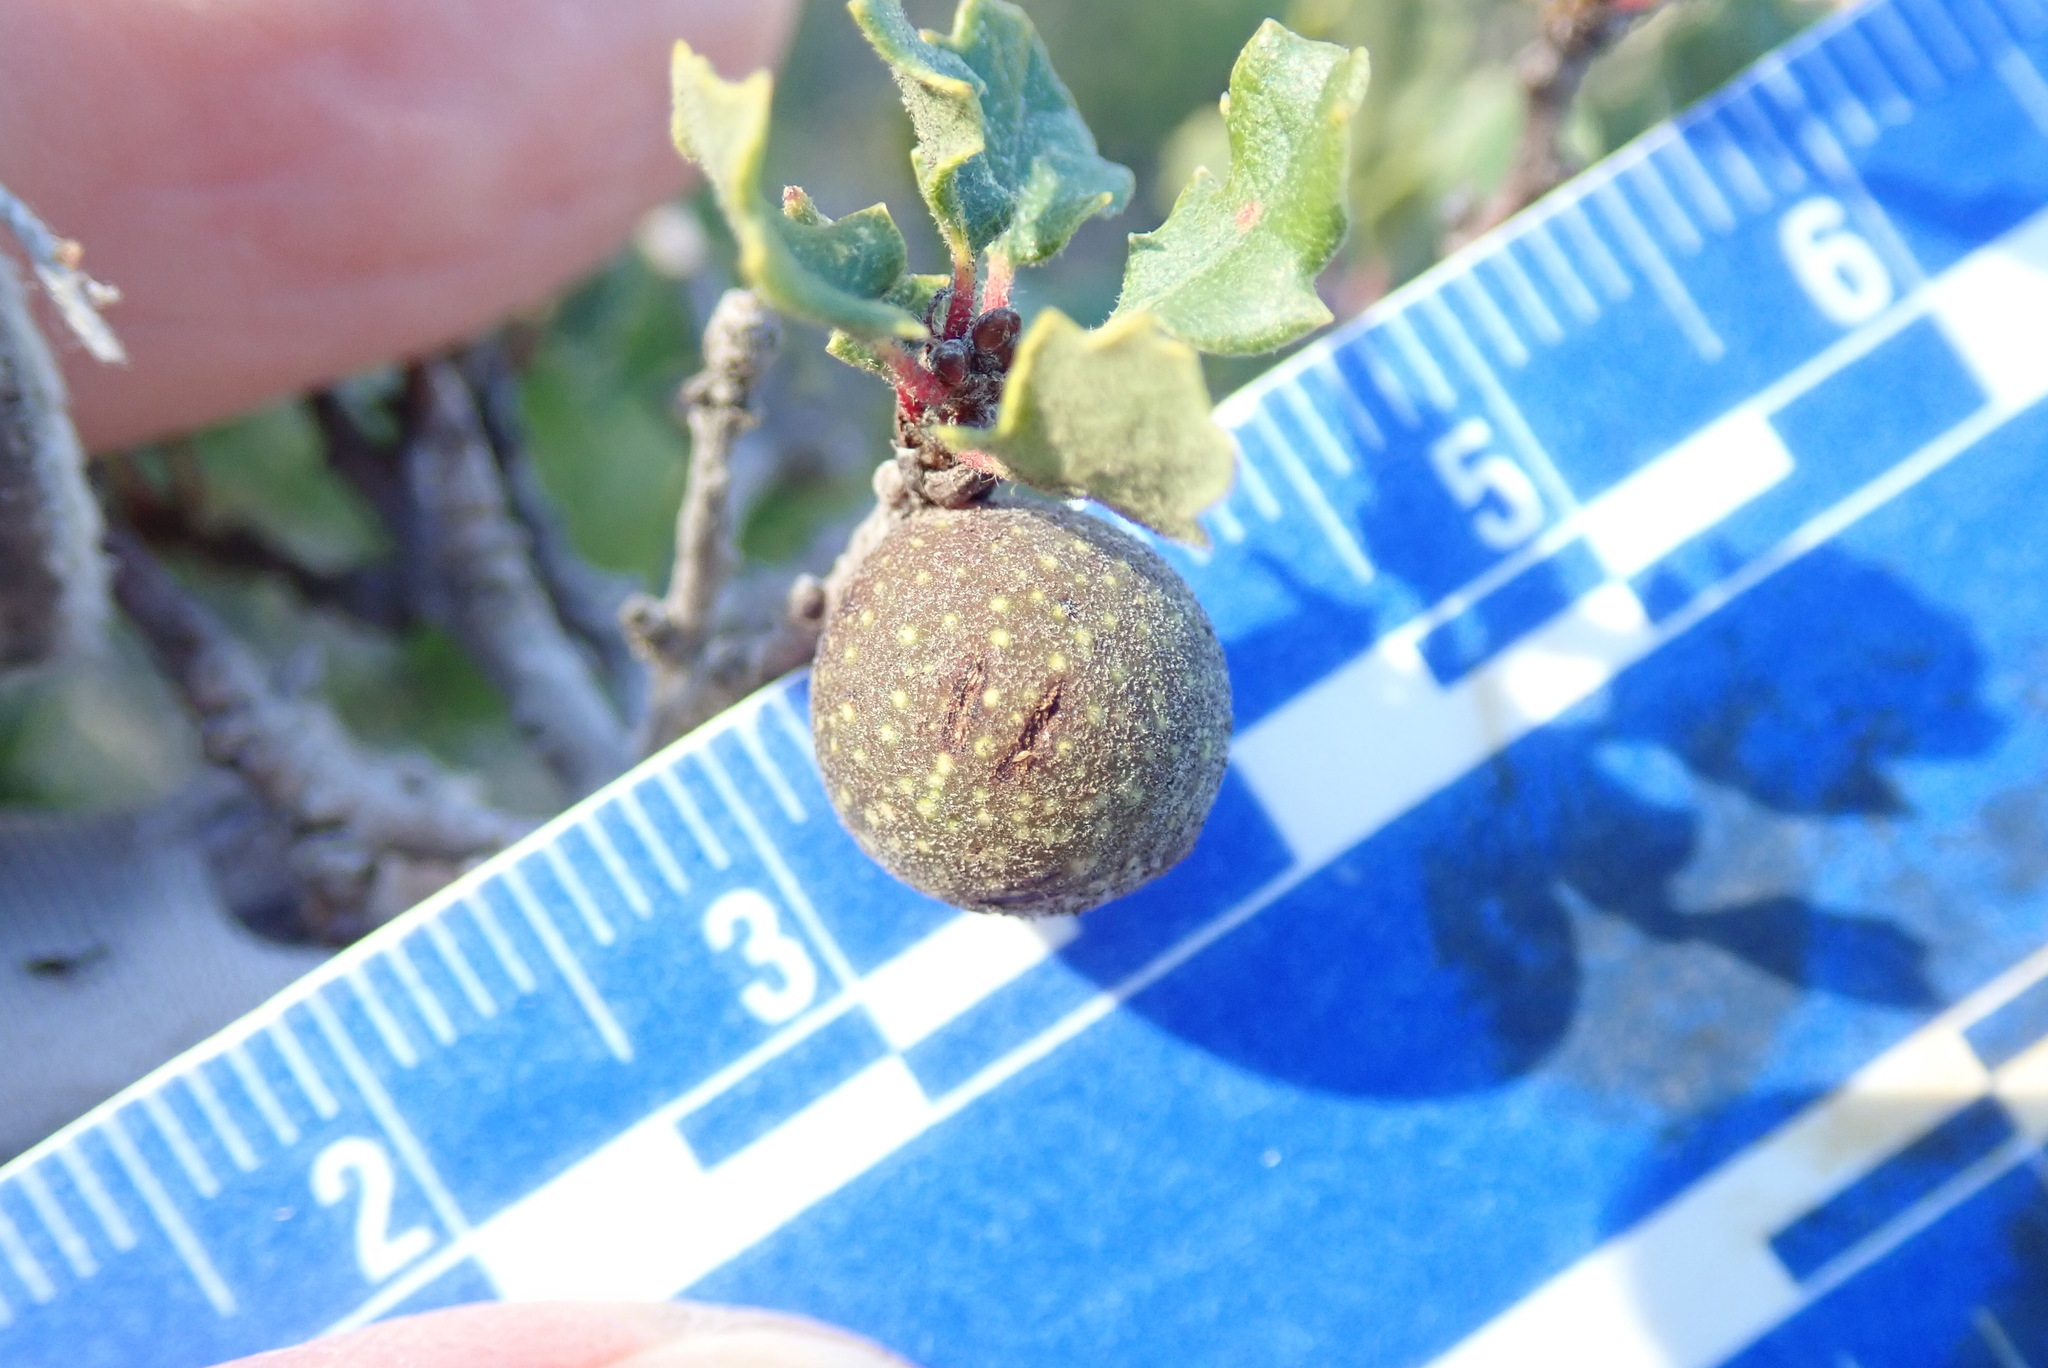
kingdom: Animalia
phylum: Arthropoda
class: Insecta
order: Hymenoptera
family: Cynipidae
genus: Burnettweldia
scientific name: Burnettweldia
